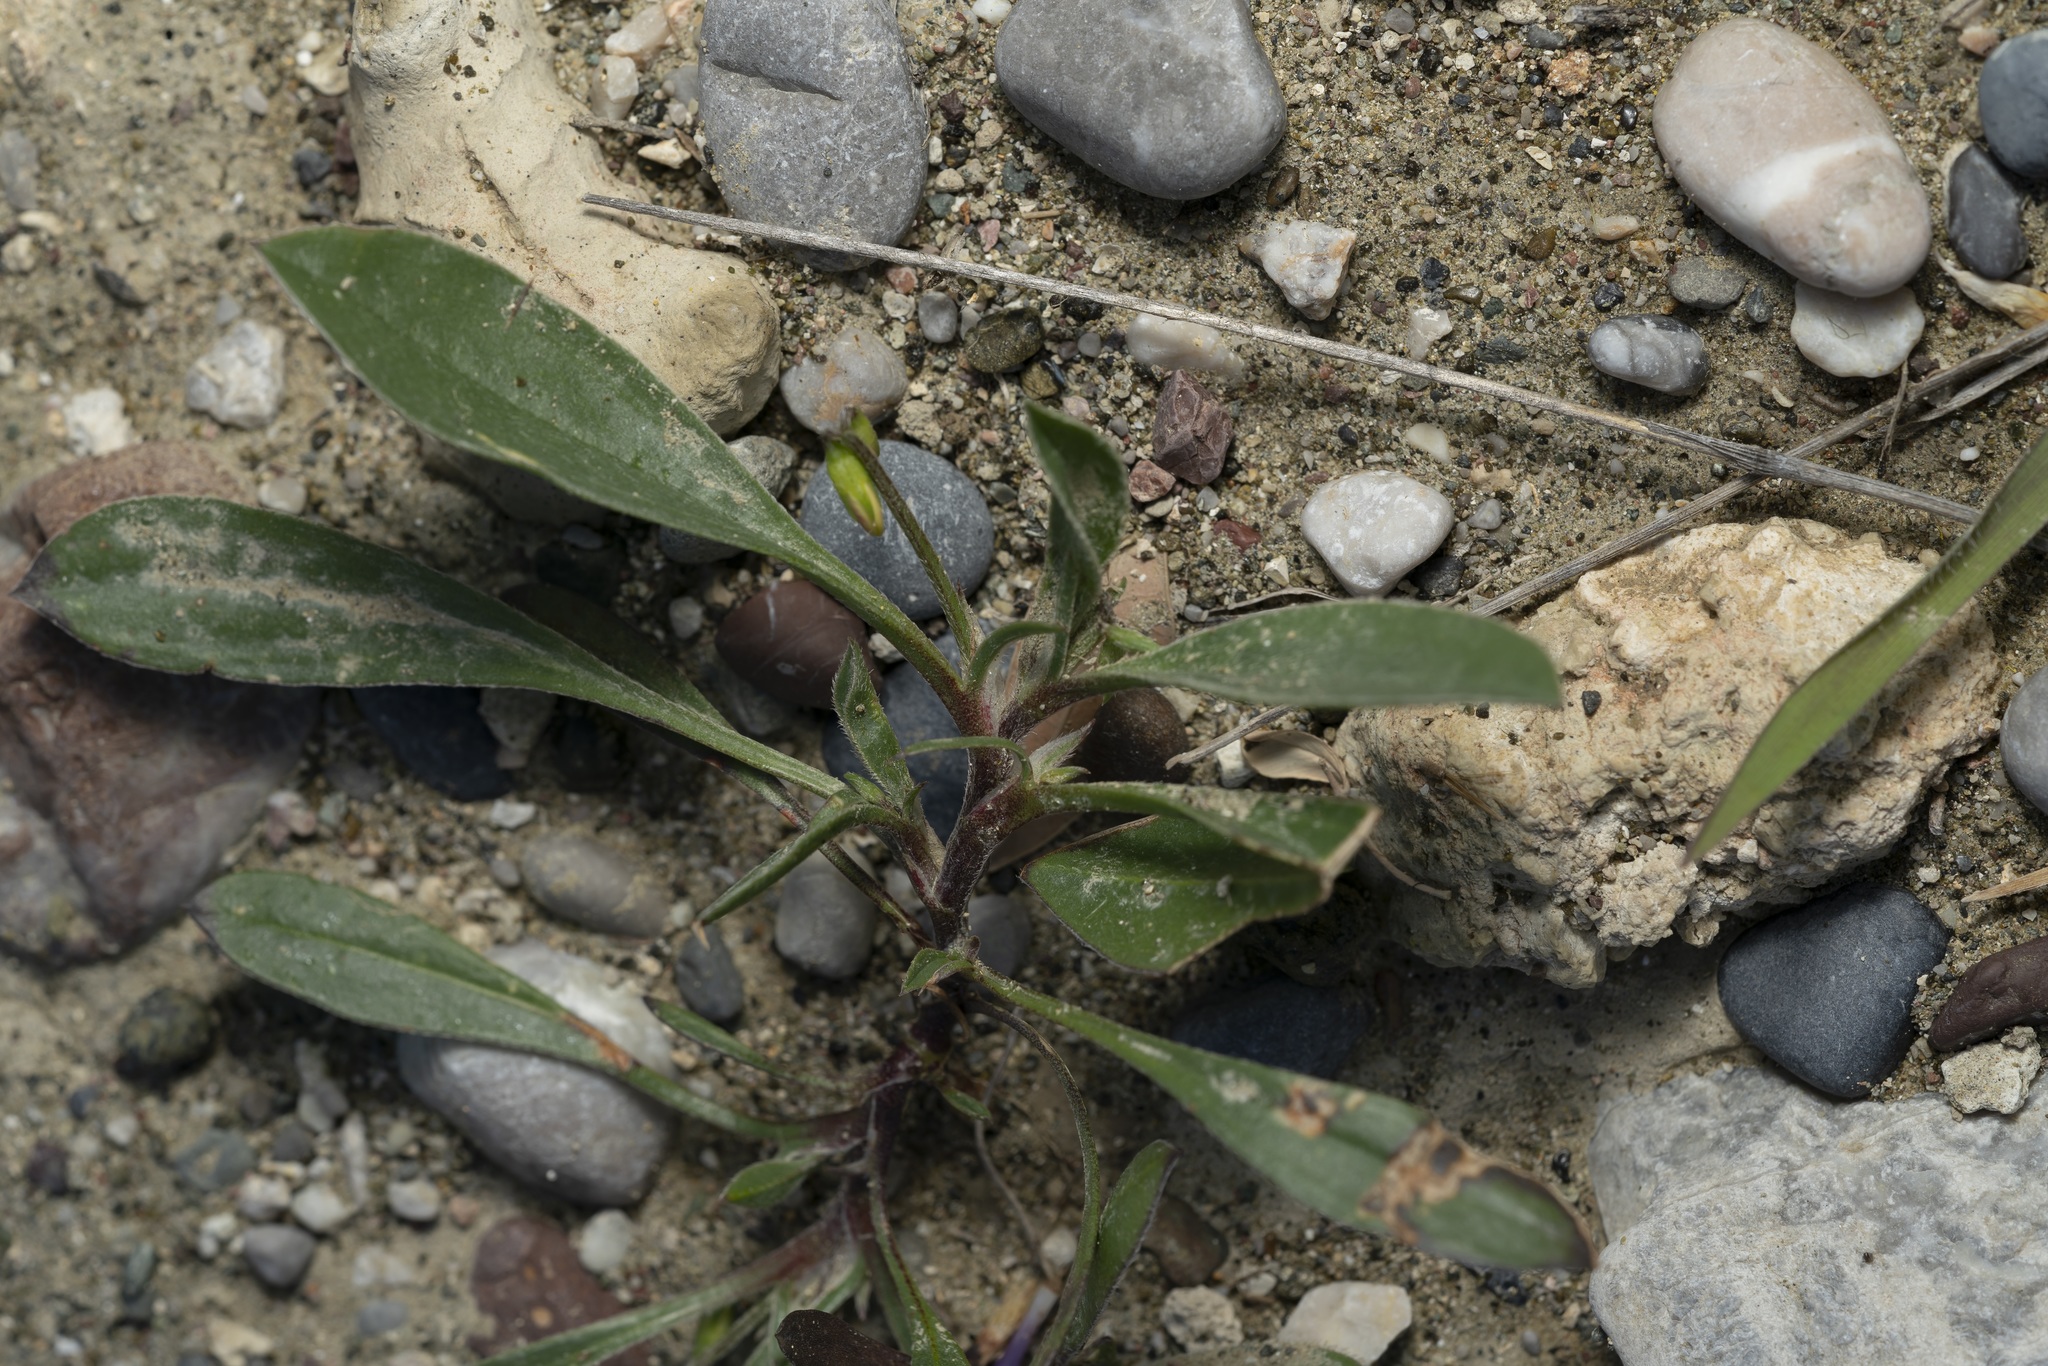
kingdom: Plantae
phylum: Tracheophyta
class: Magnoliopsida
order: Fabales
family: Fabaceae
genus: Scorpiurus
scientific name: Scorpiurus muricatus
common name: Caterpillar-plant
